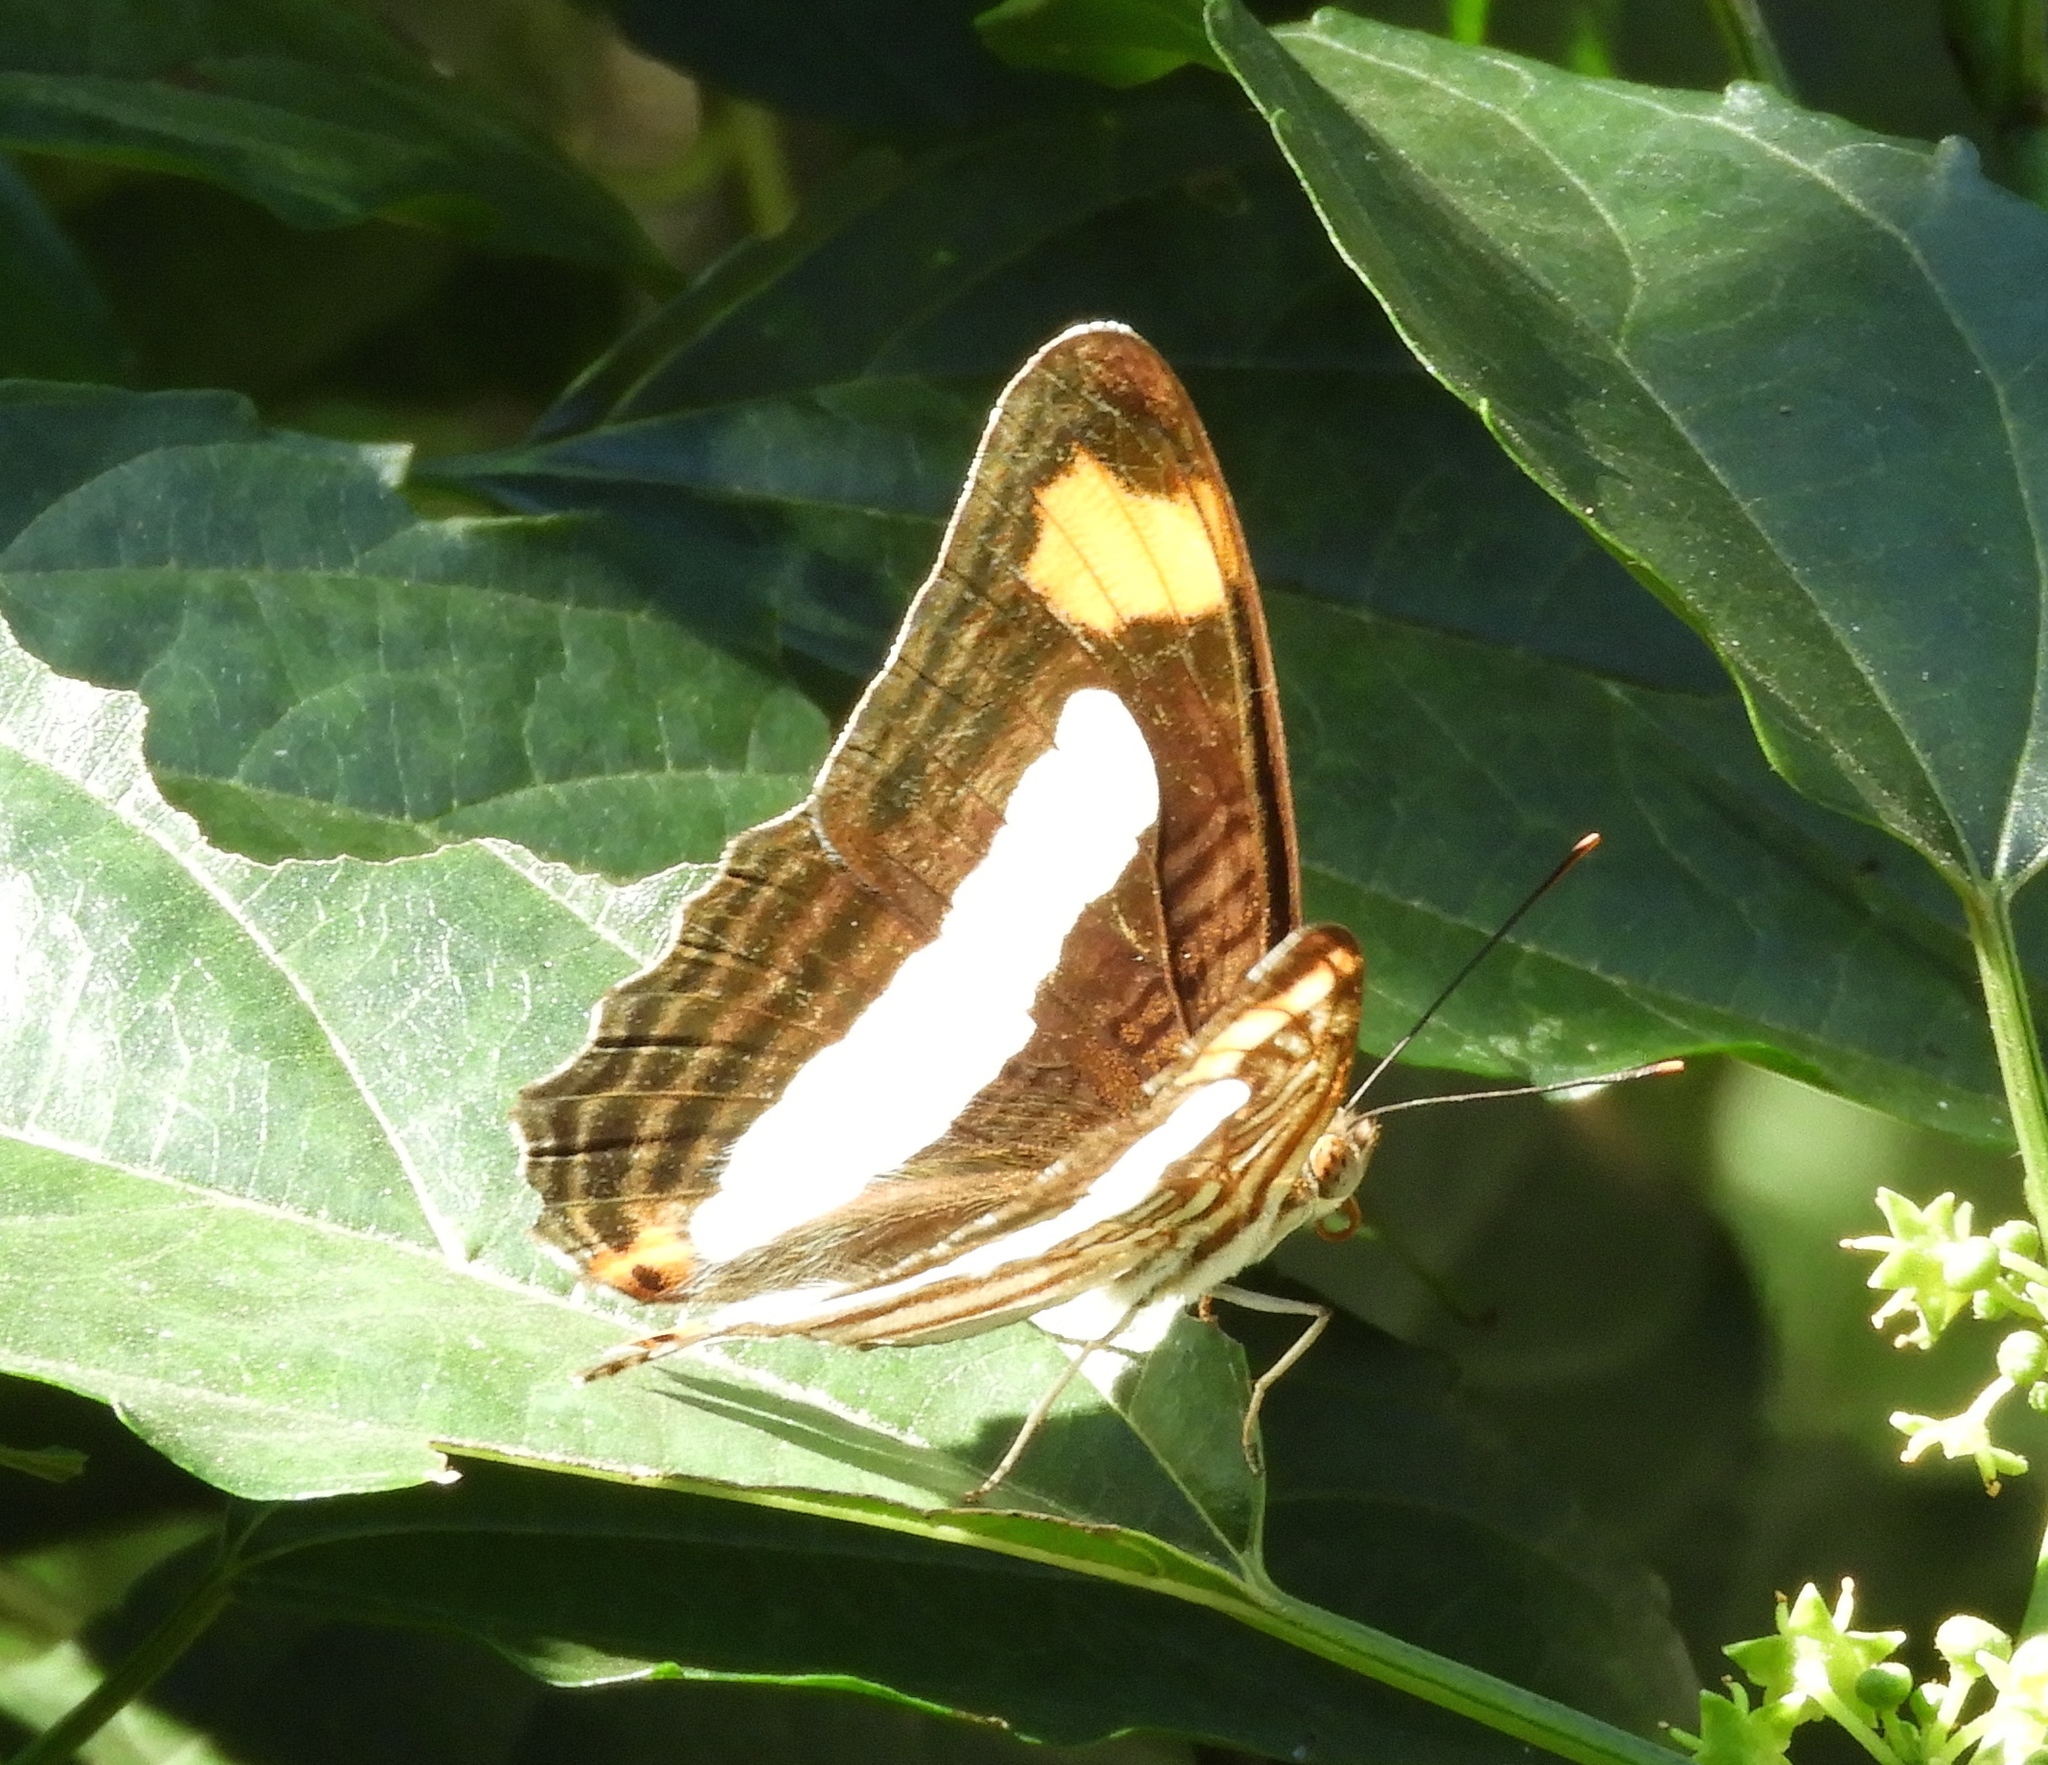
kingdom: Animalia
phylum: Arthropoda
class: Insecta
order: Lepidoptera
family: Nymphalidae
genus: Limenitis
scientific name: Limenitis iphiclus
